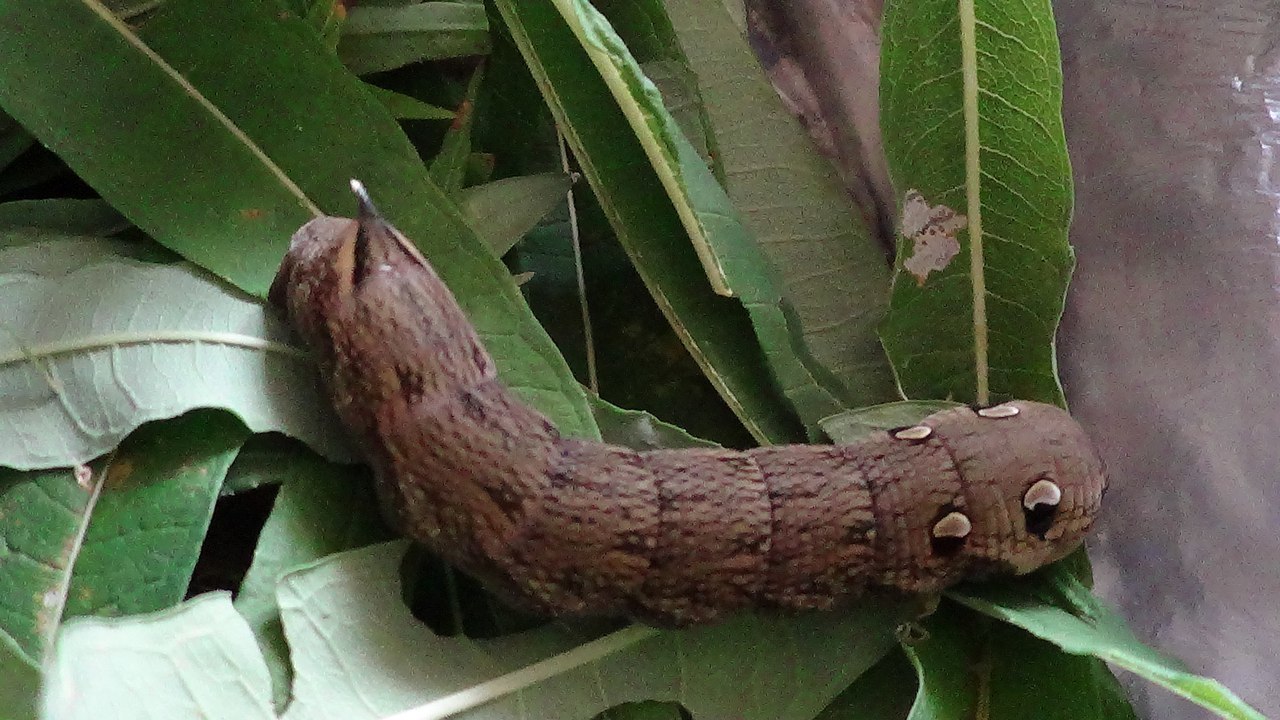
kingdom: Animalia
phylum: Arthropoda
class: Insecta
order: Lepidoptera
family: Sphingidae
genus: Deilephila
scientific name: Deilephila elpenor
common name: Elephant hawk-moth
